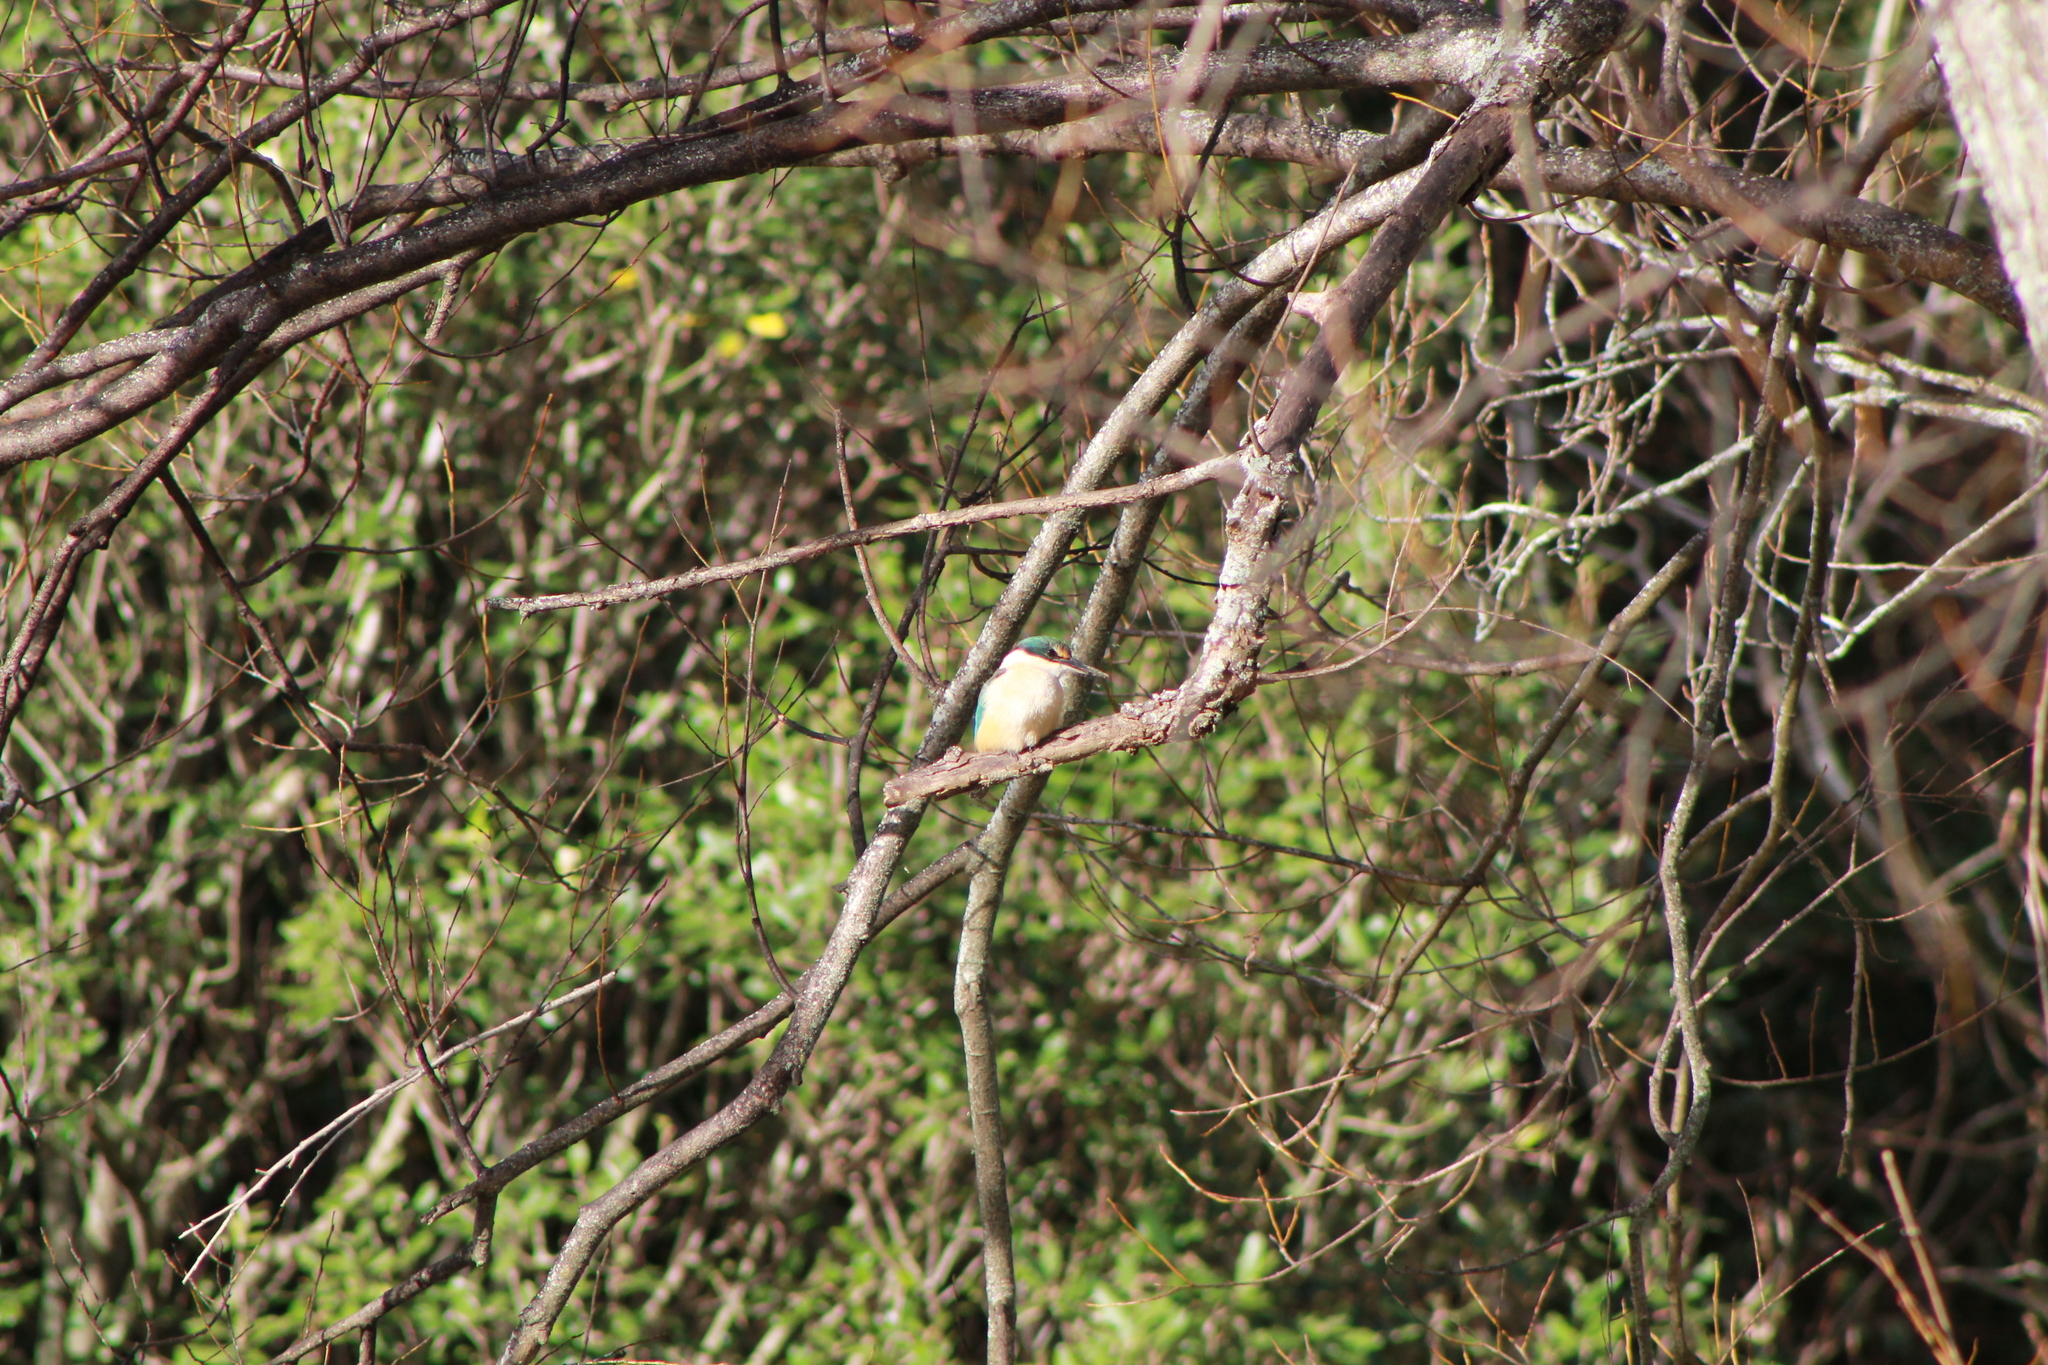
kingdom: Animalia
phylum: Chordata
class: Aves
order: Coraciiformes
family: Alcedinidae
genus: Todiramphus
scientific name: Todiramphus sanctus
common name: Sacred kingfisher
